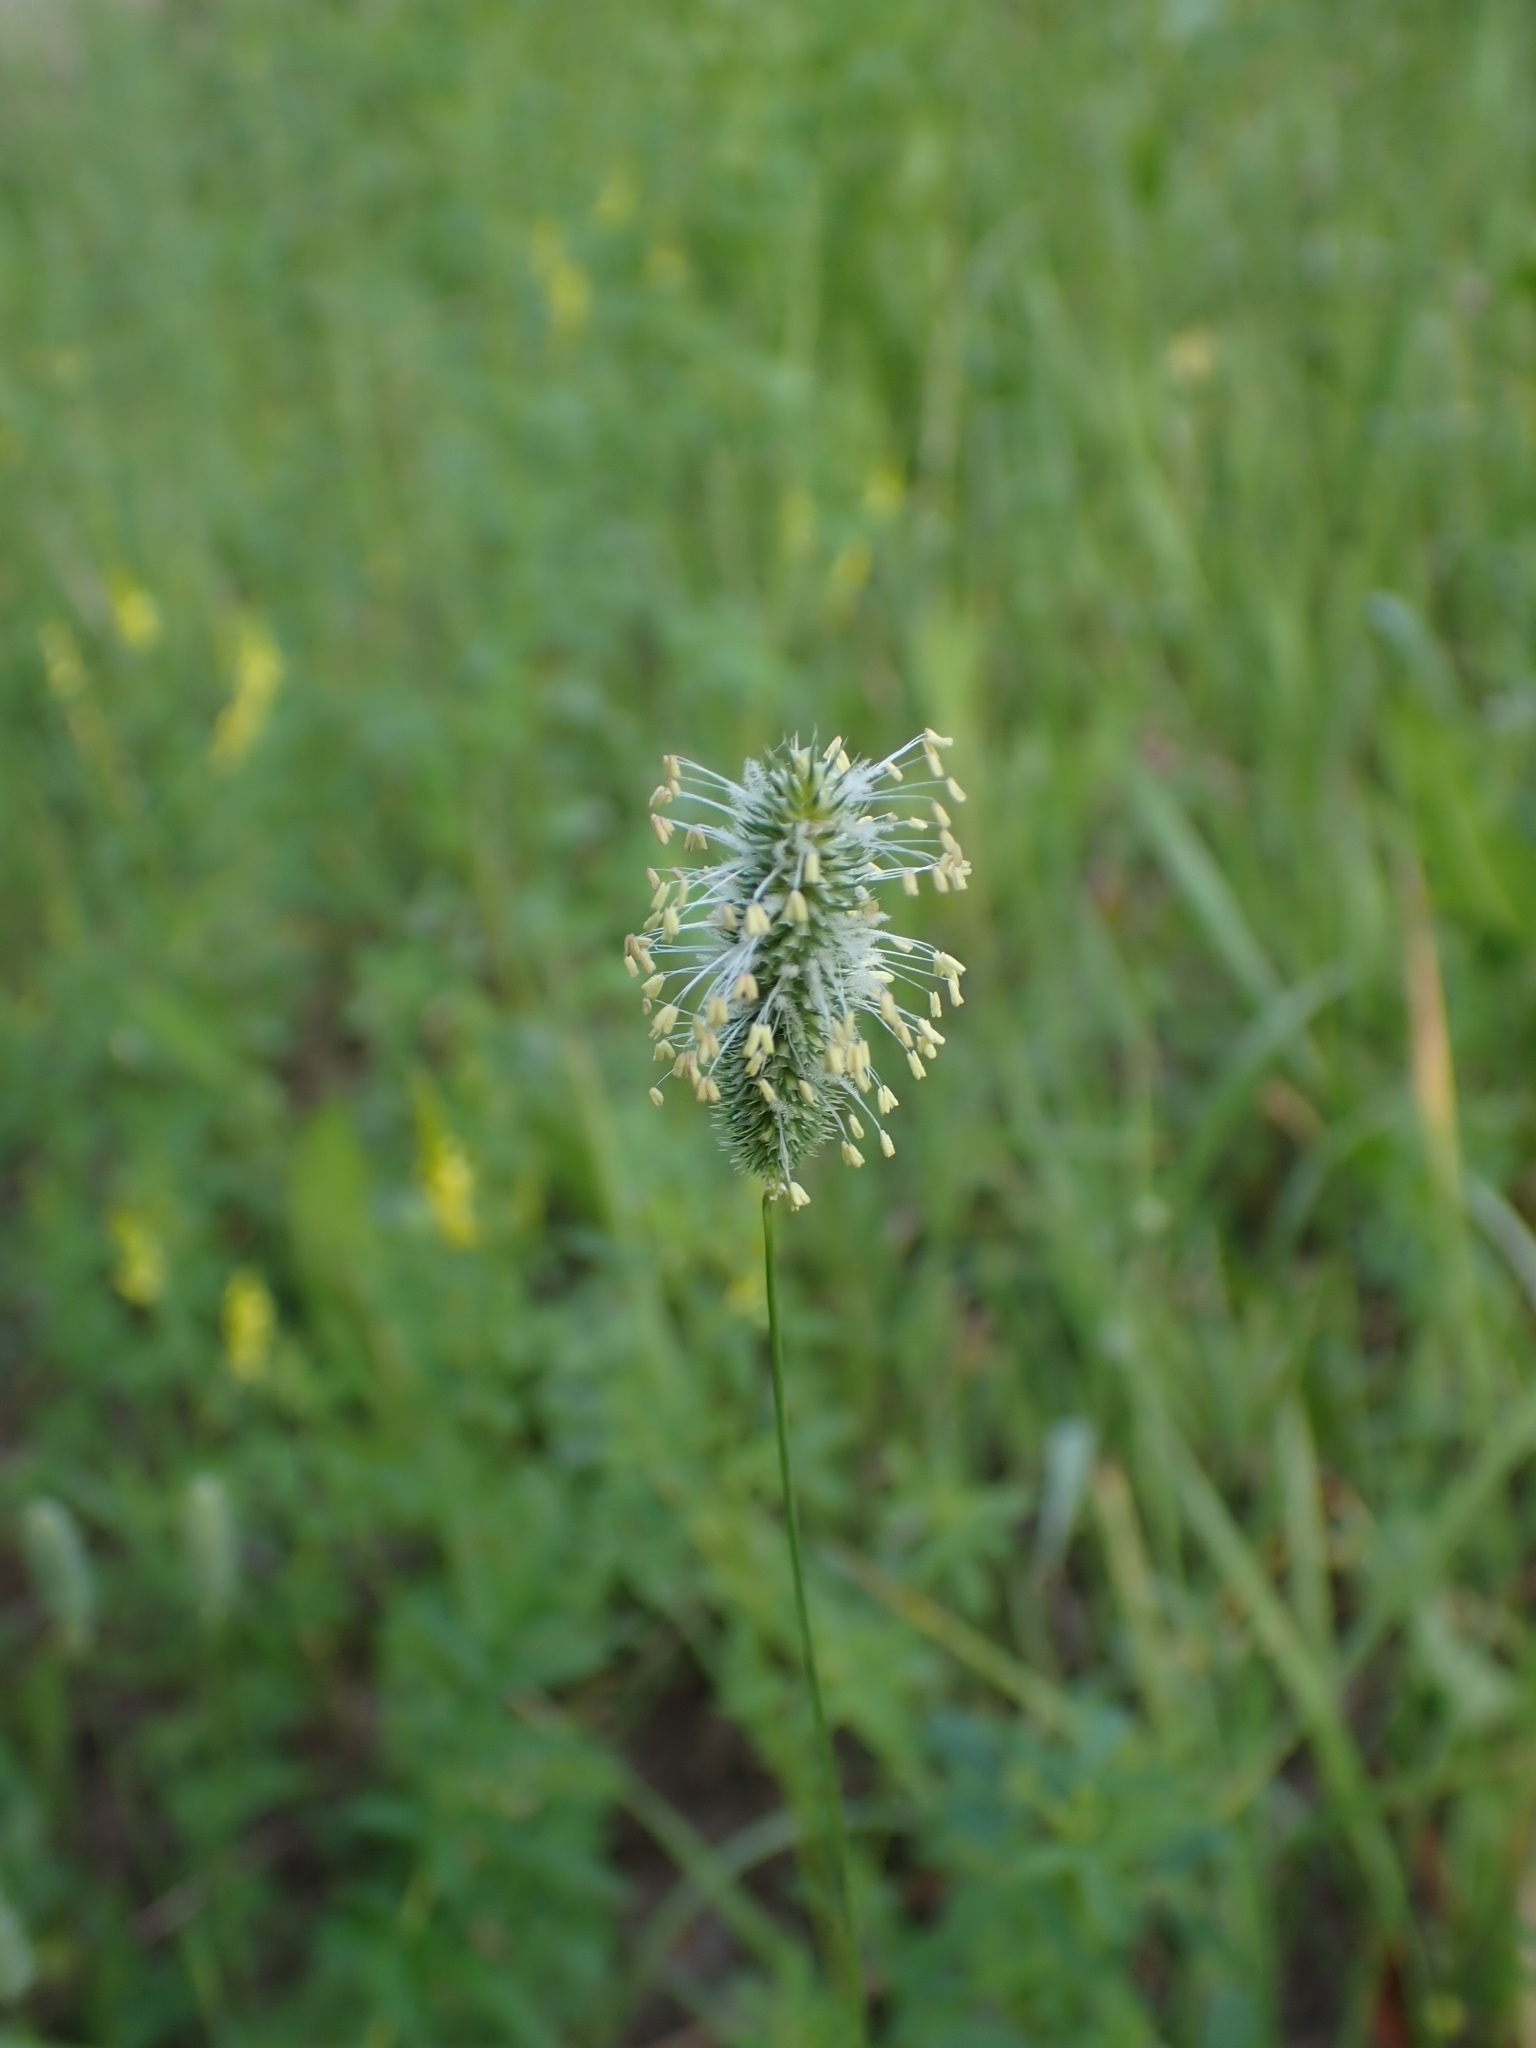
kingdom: Plantae
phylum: Tracheophyta
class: Liliopsida
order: Poales
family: Poaceae
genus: Phleum
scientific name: Phleum pratense
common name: Timothy grass
